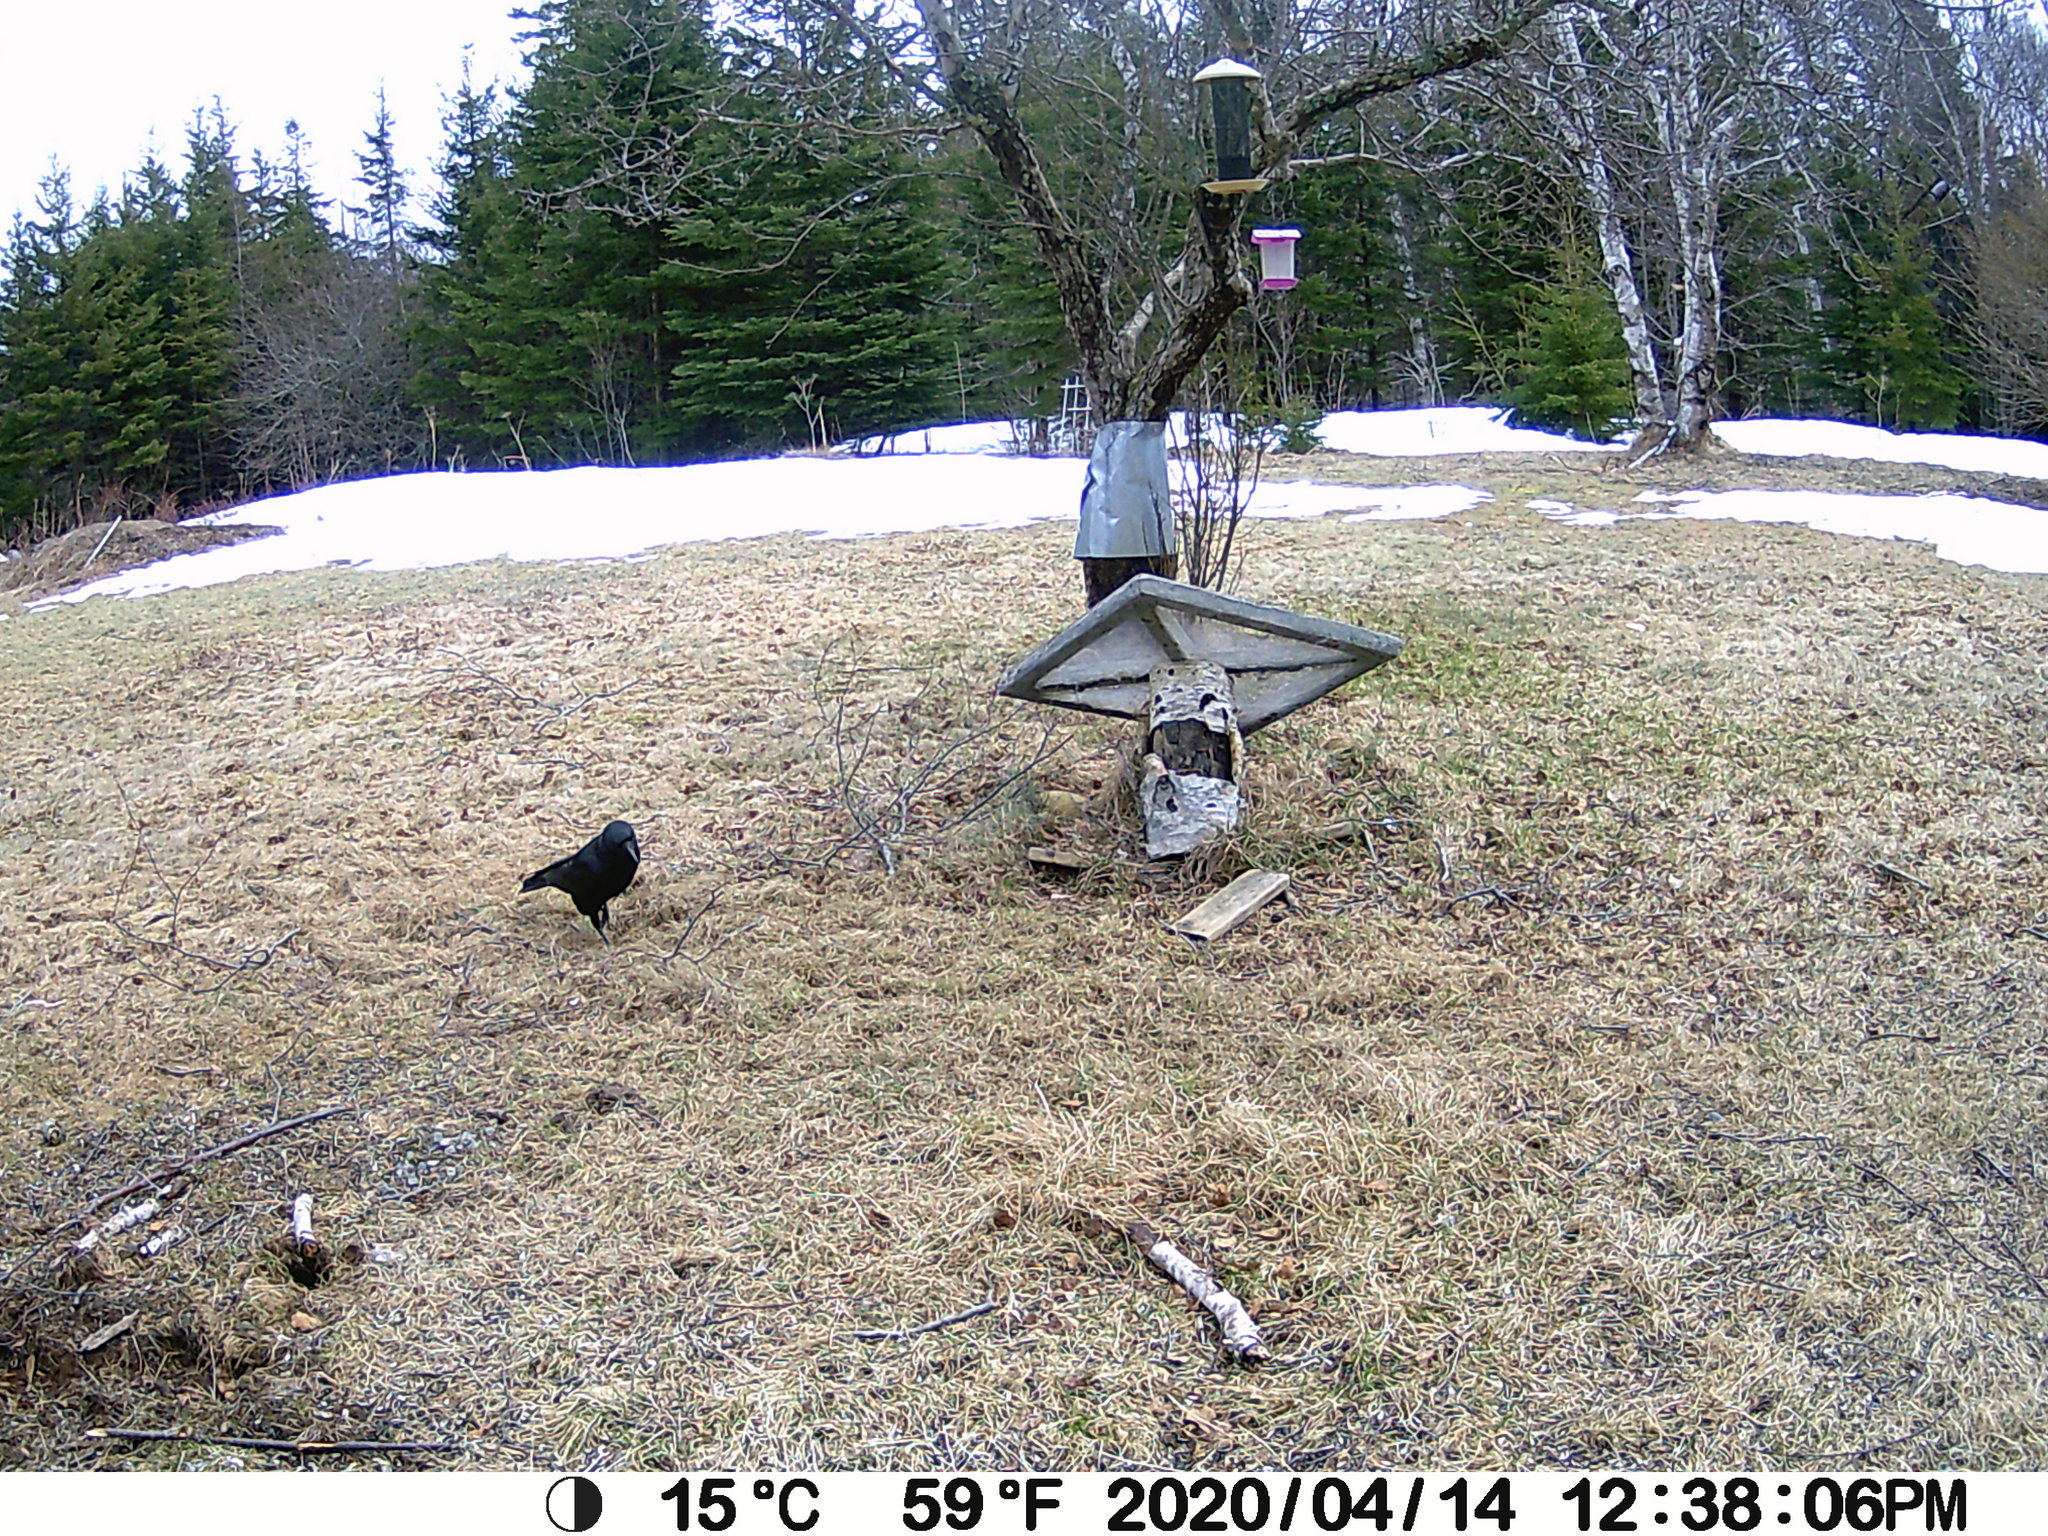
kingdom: Animalia
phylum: Chordata
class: Aves
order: Passeriformes
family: Corvidae
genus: Corvus
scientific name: Corvus brachyrhynchos
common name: American crow
